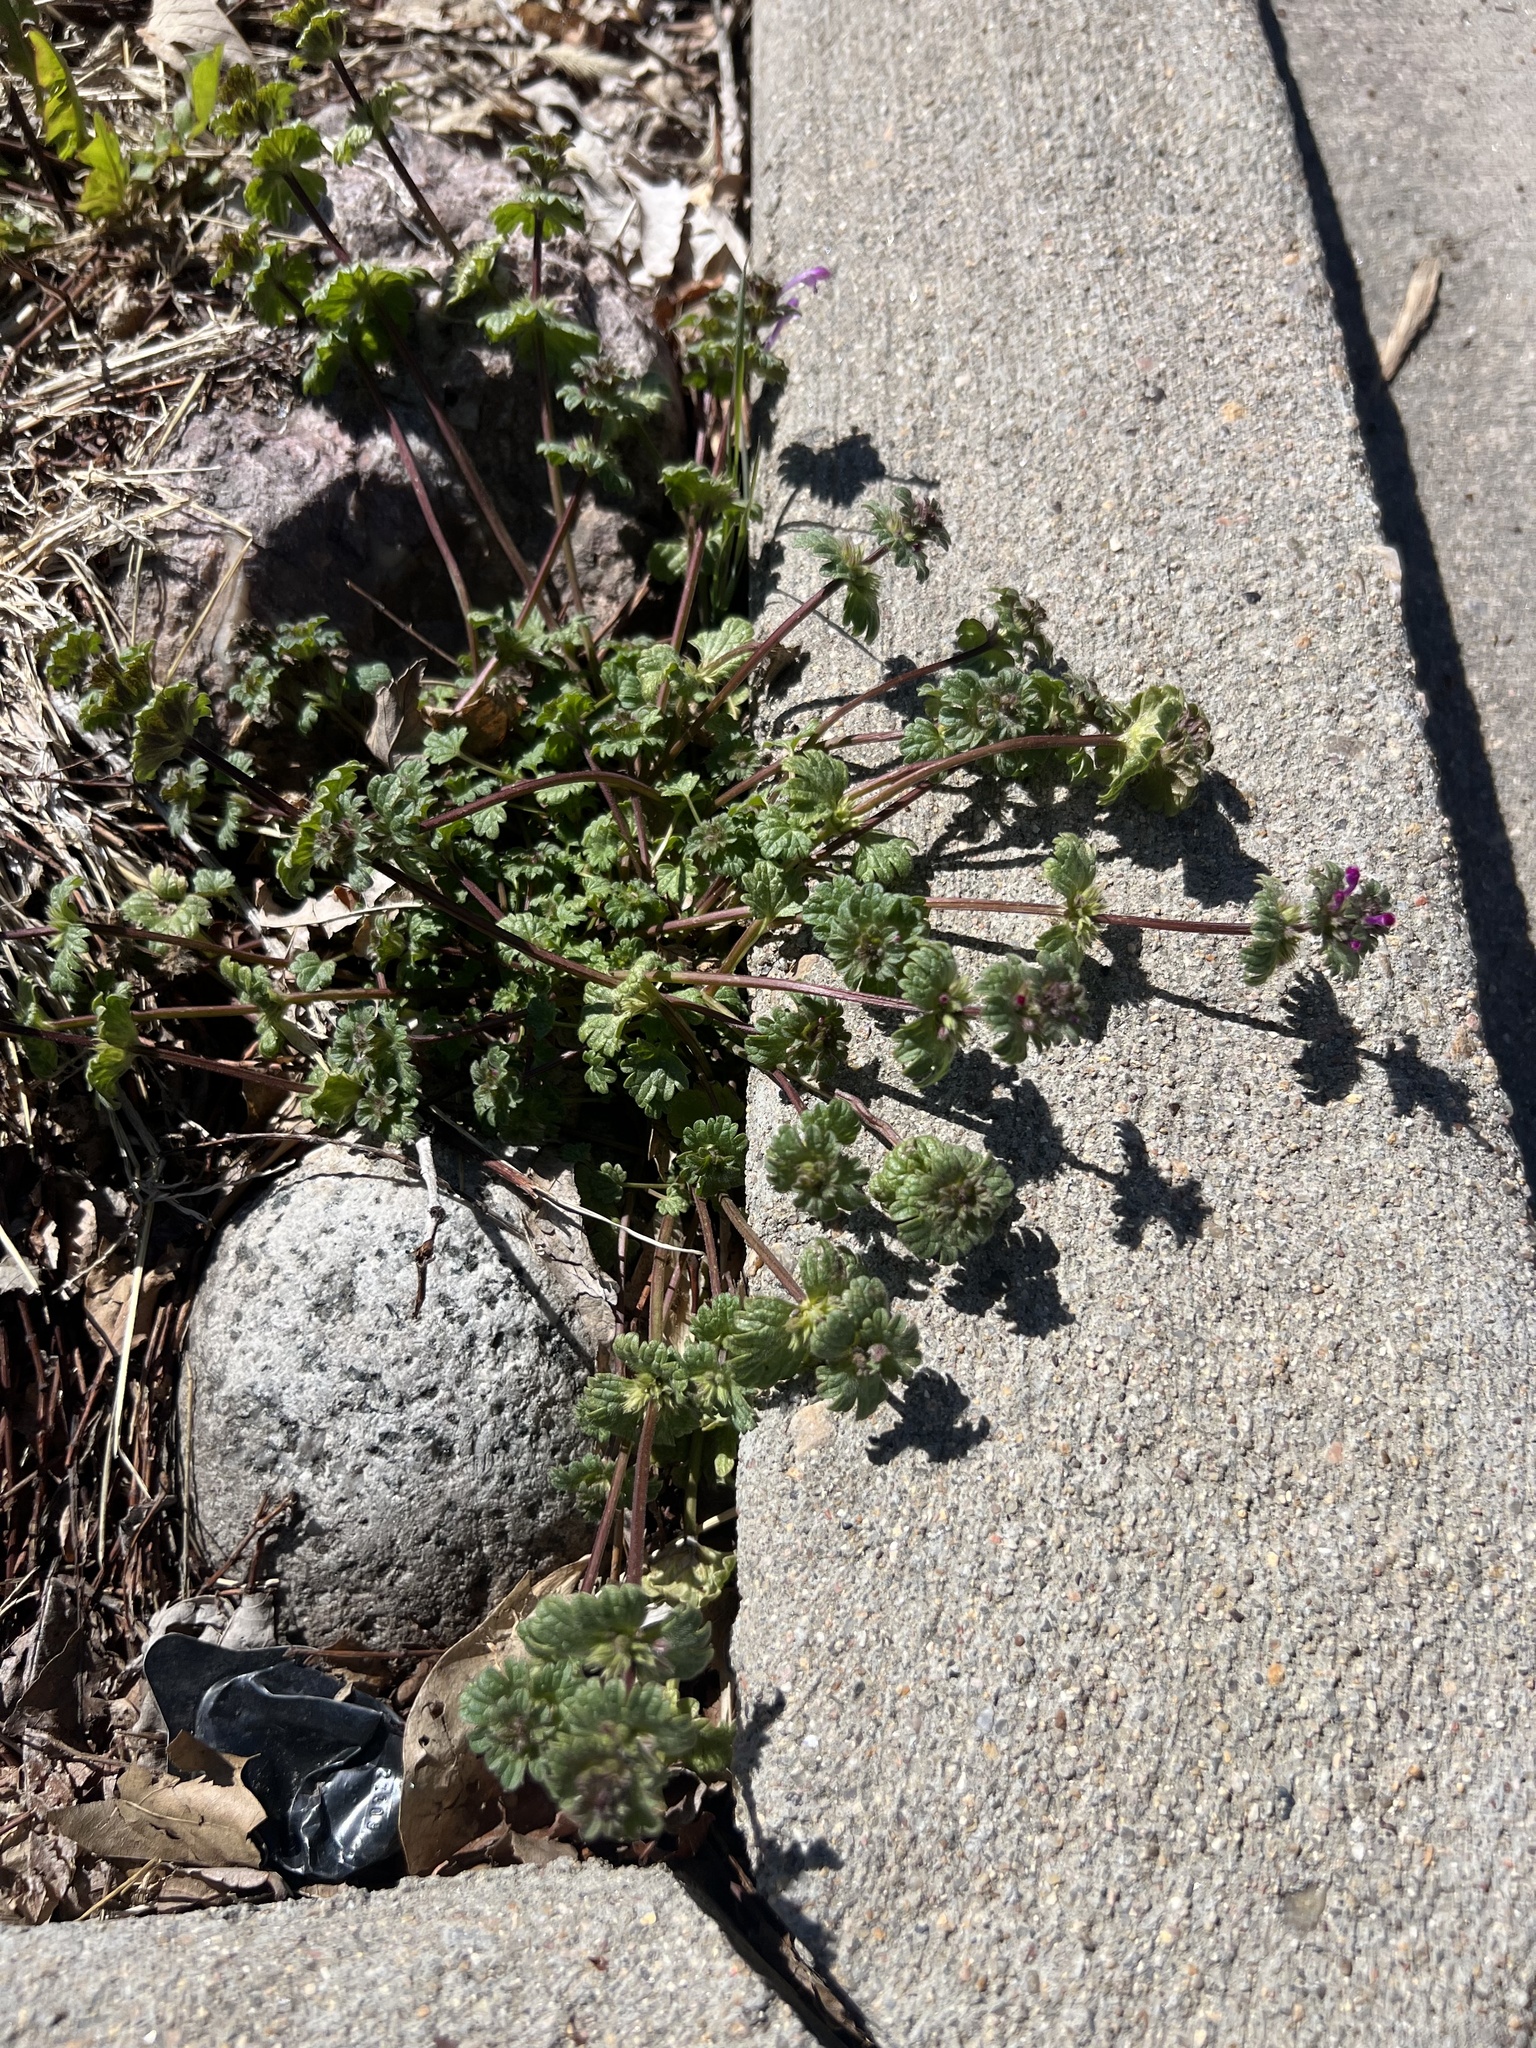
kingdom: Plantae
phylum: Tracheophyta
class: Magnoliopsida
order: Lamiales
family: Lamiaceae
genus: Lamium
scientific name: Lamium amplexicaule
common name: Henbit dead-nettle
